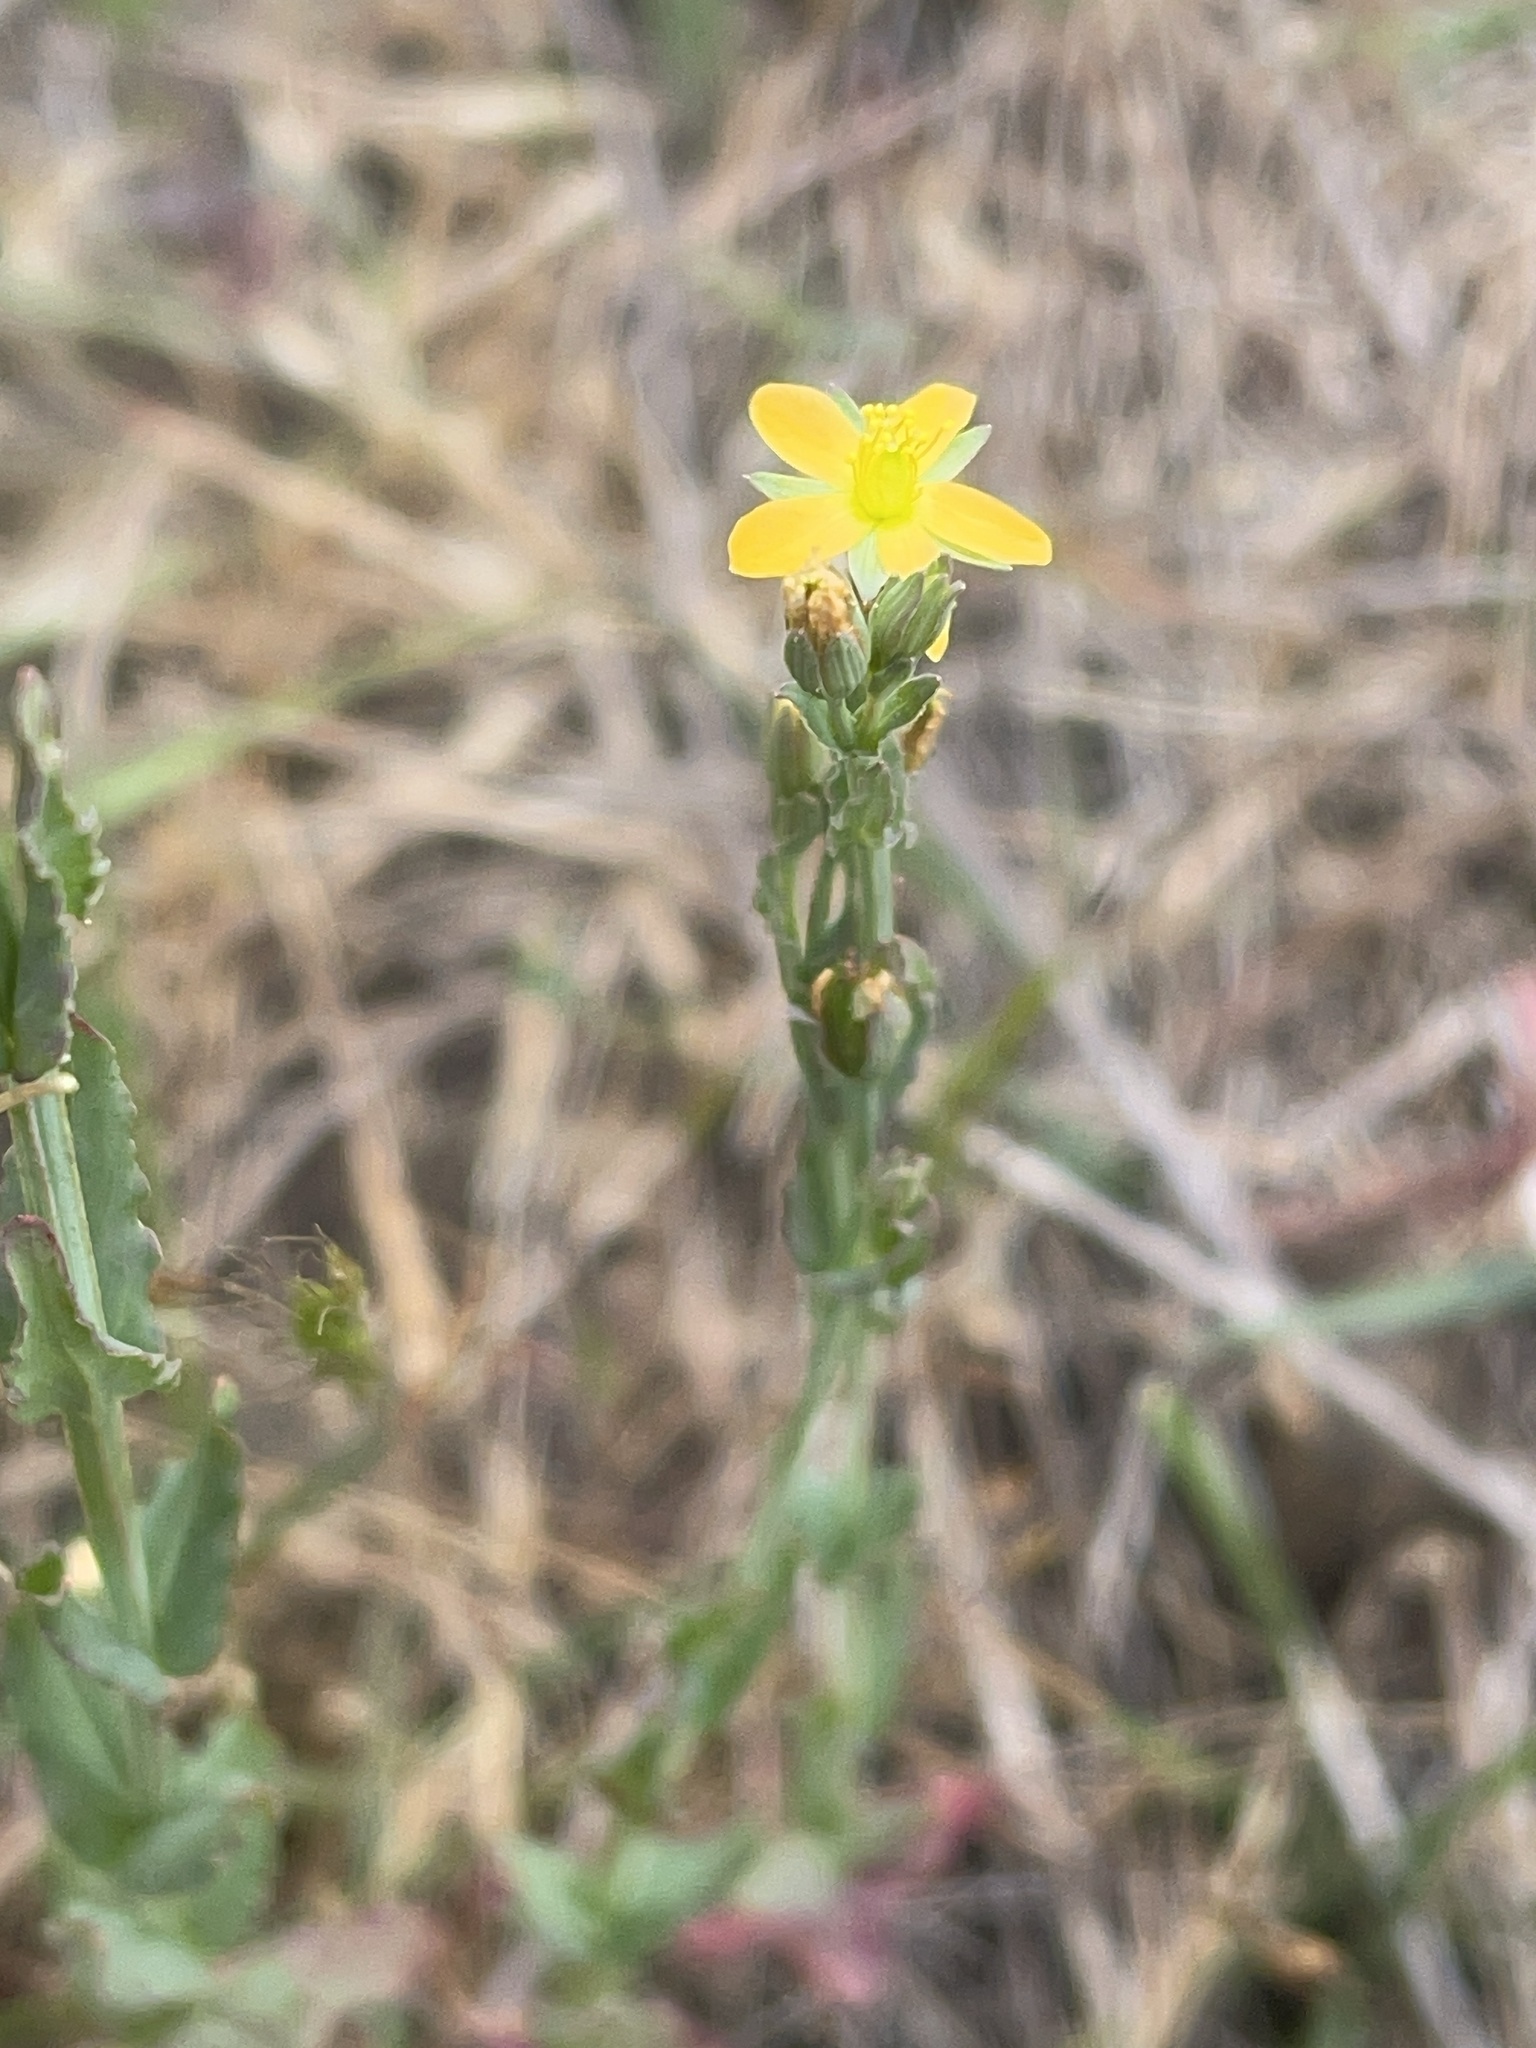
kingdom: Plantae
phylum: Tracheophyta
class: Magnoliopsida
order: Malpighiales
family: Hypericaceae
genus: Hypericum
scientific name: Hypericum gramineum
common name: Grassy st. johnswort
